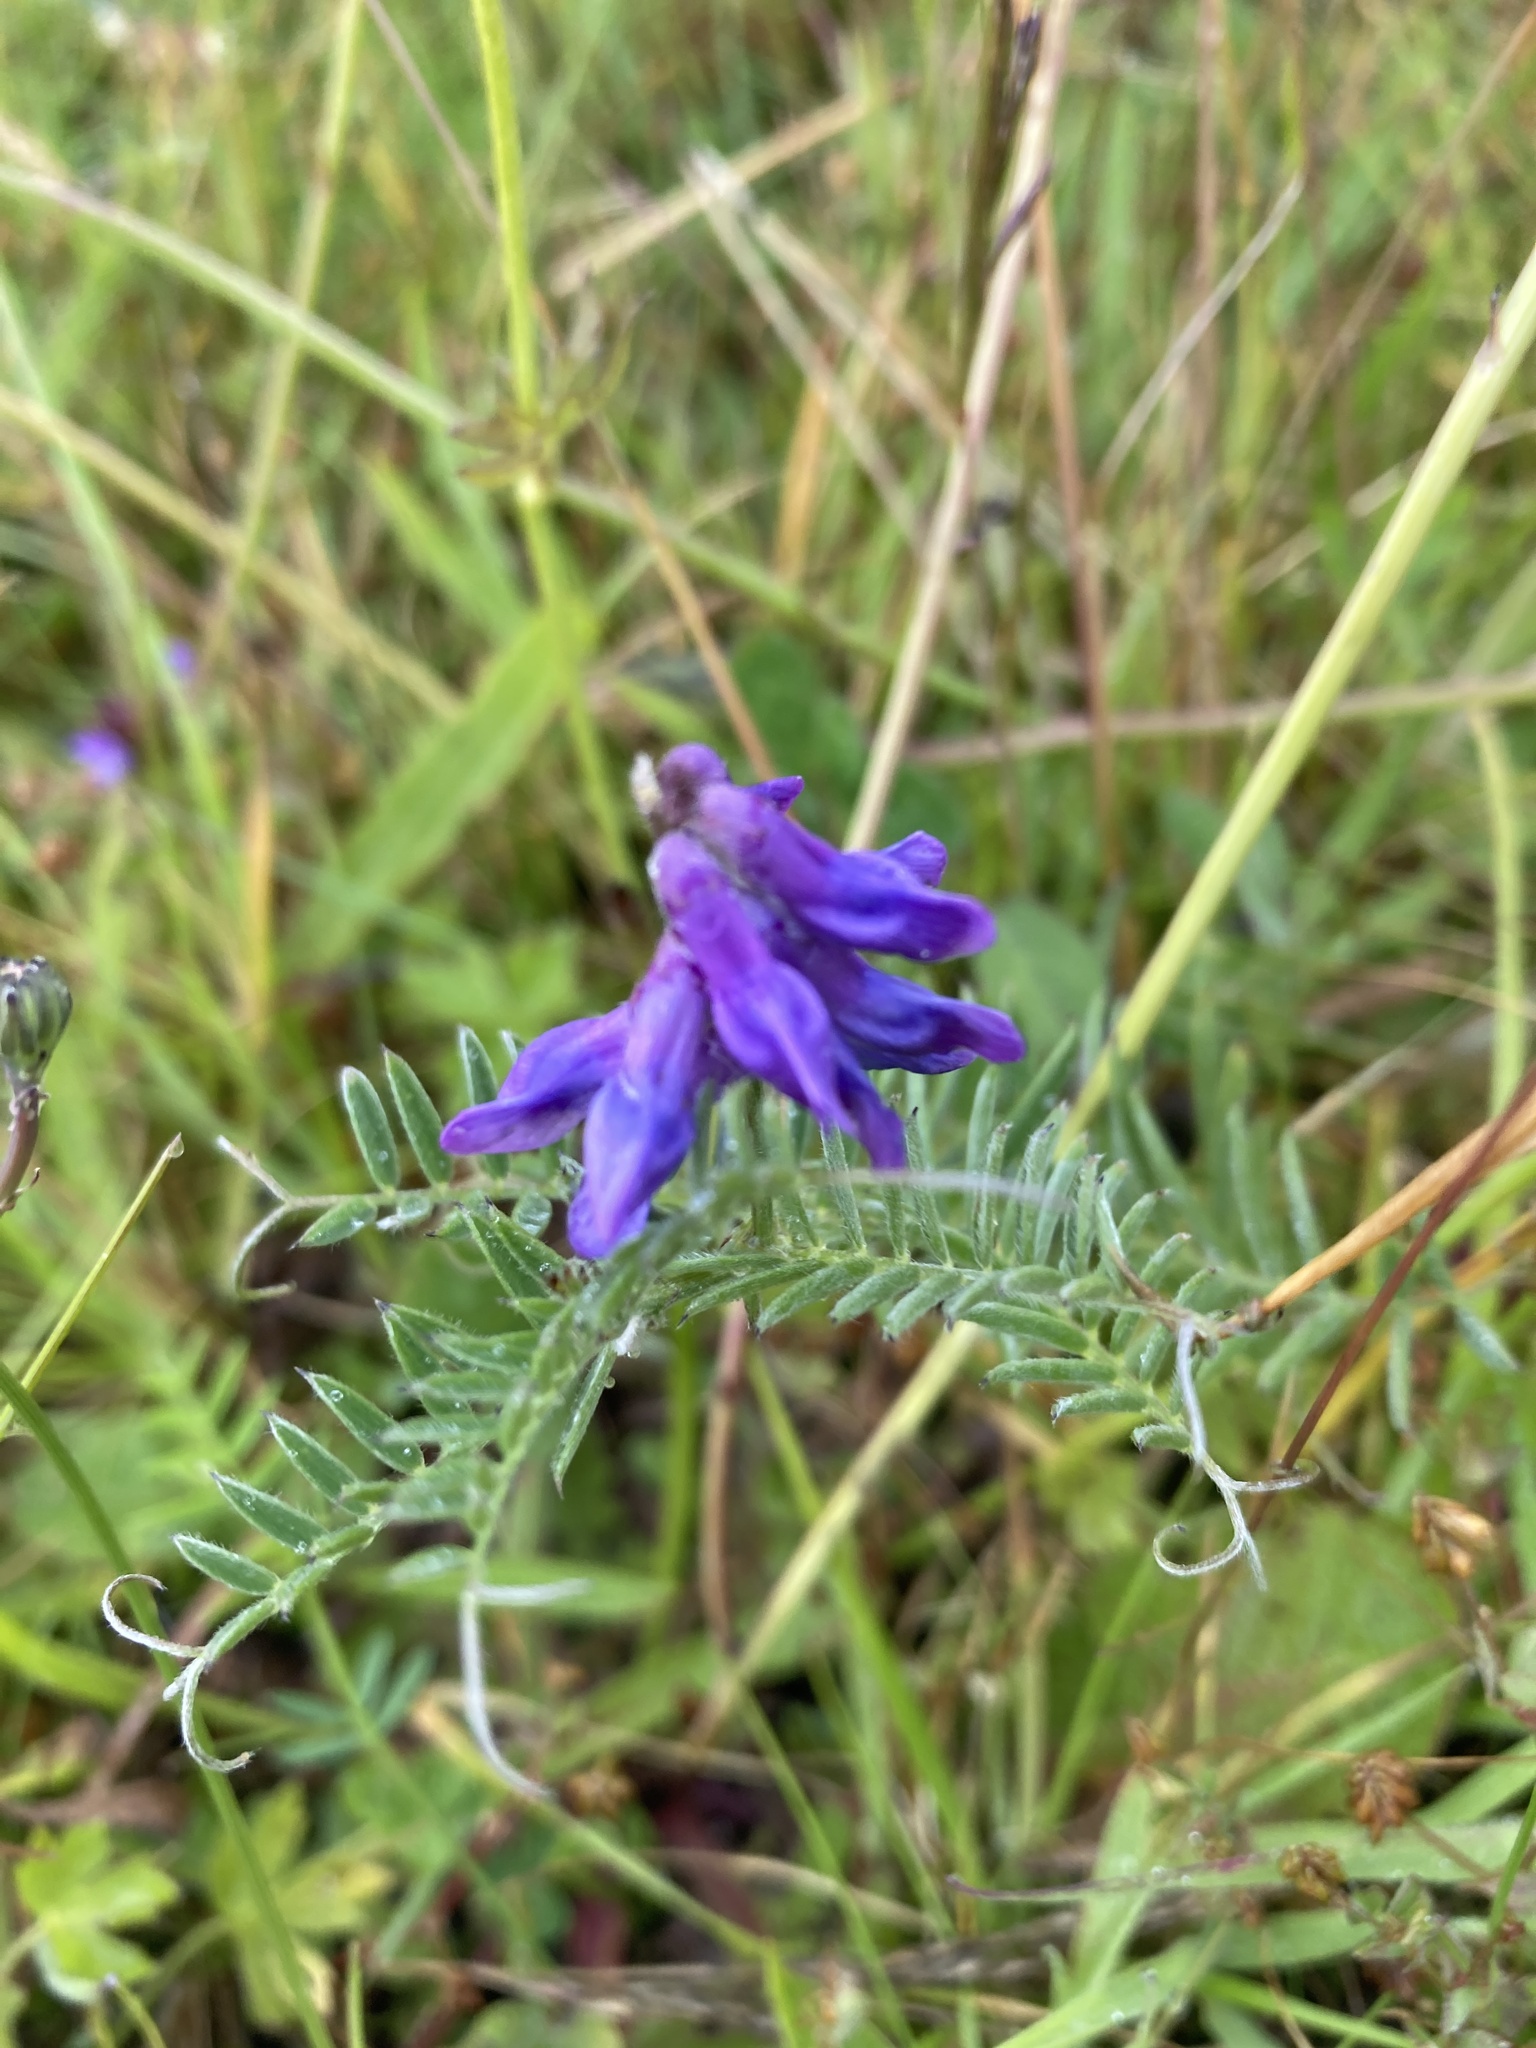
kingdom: Plantae
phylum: Tracheophyta
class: Magnoliopsida
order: Fabales
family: Fabaceae
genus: Vicia
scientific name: Vicia cracca
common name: Bird vetch
